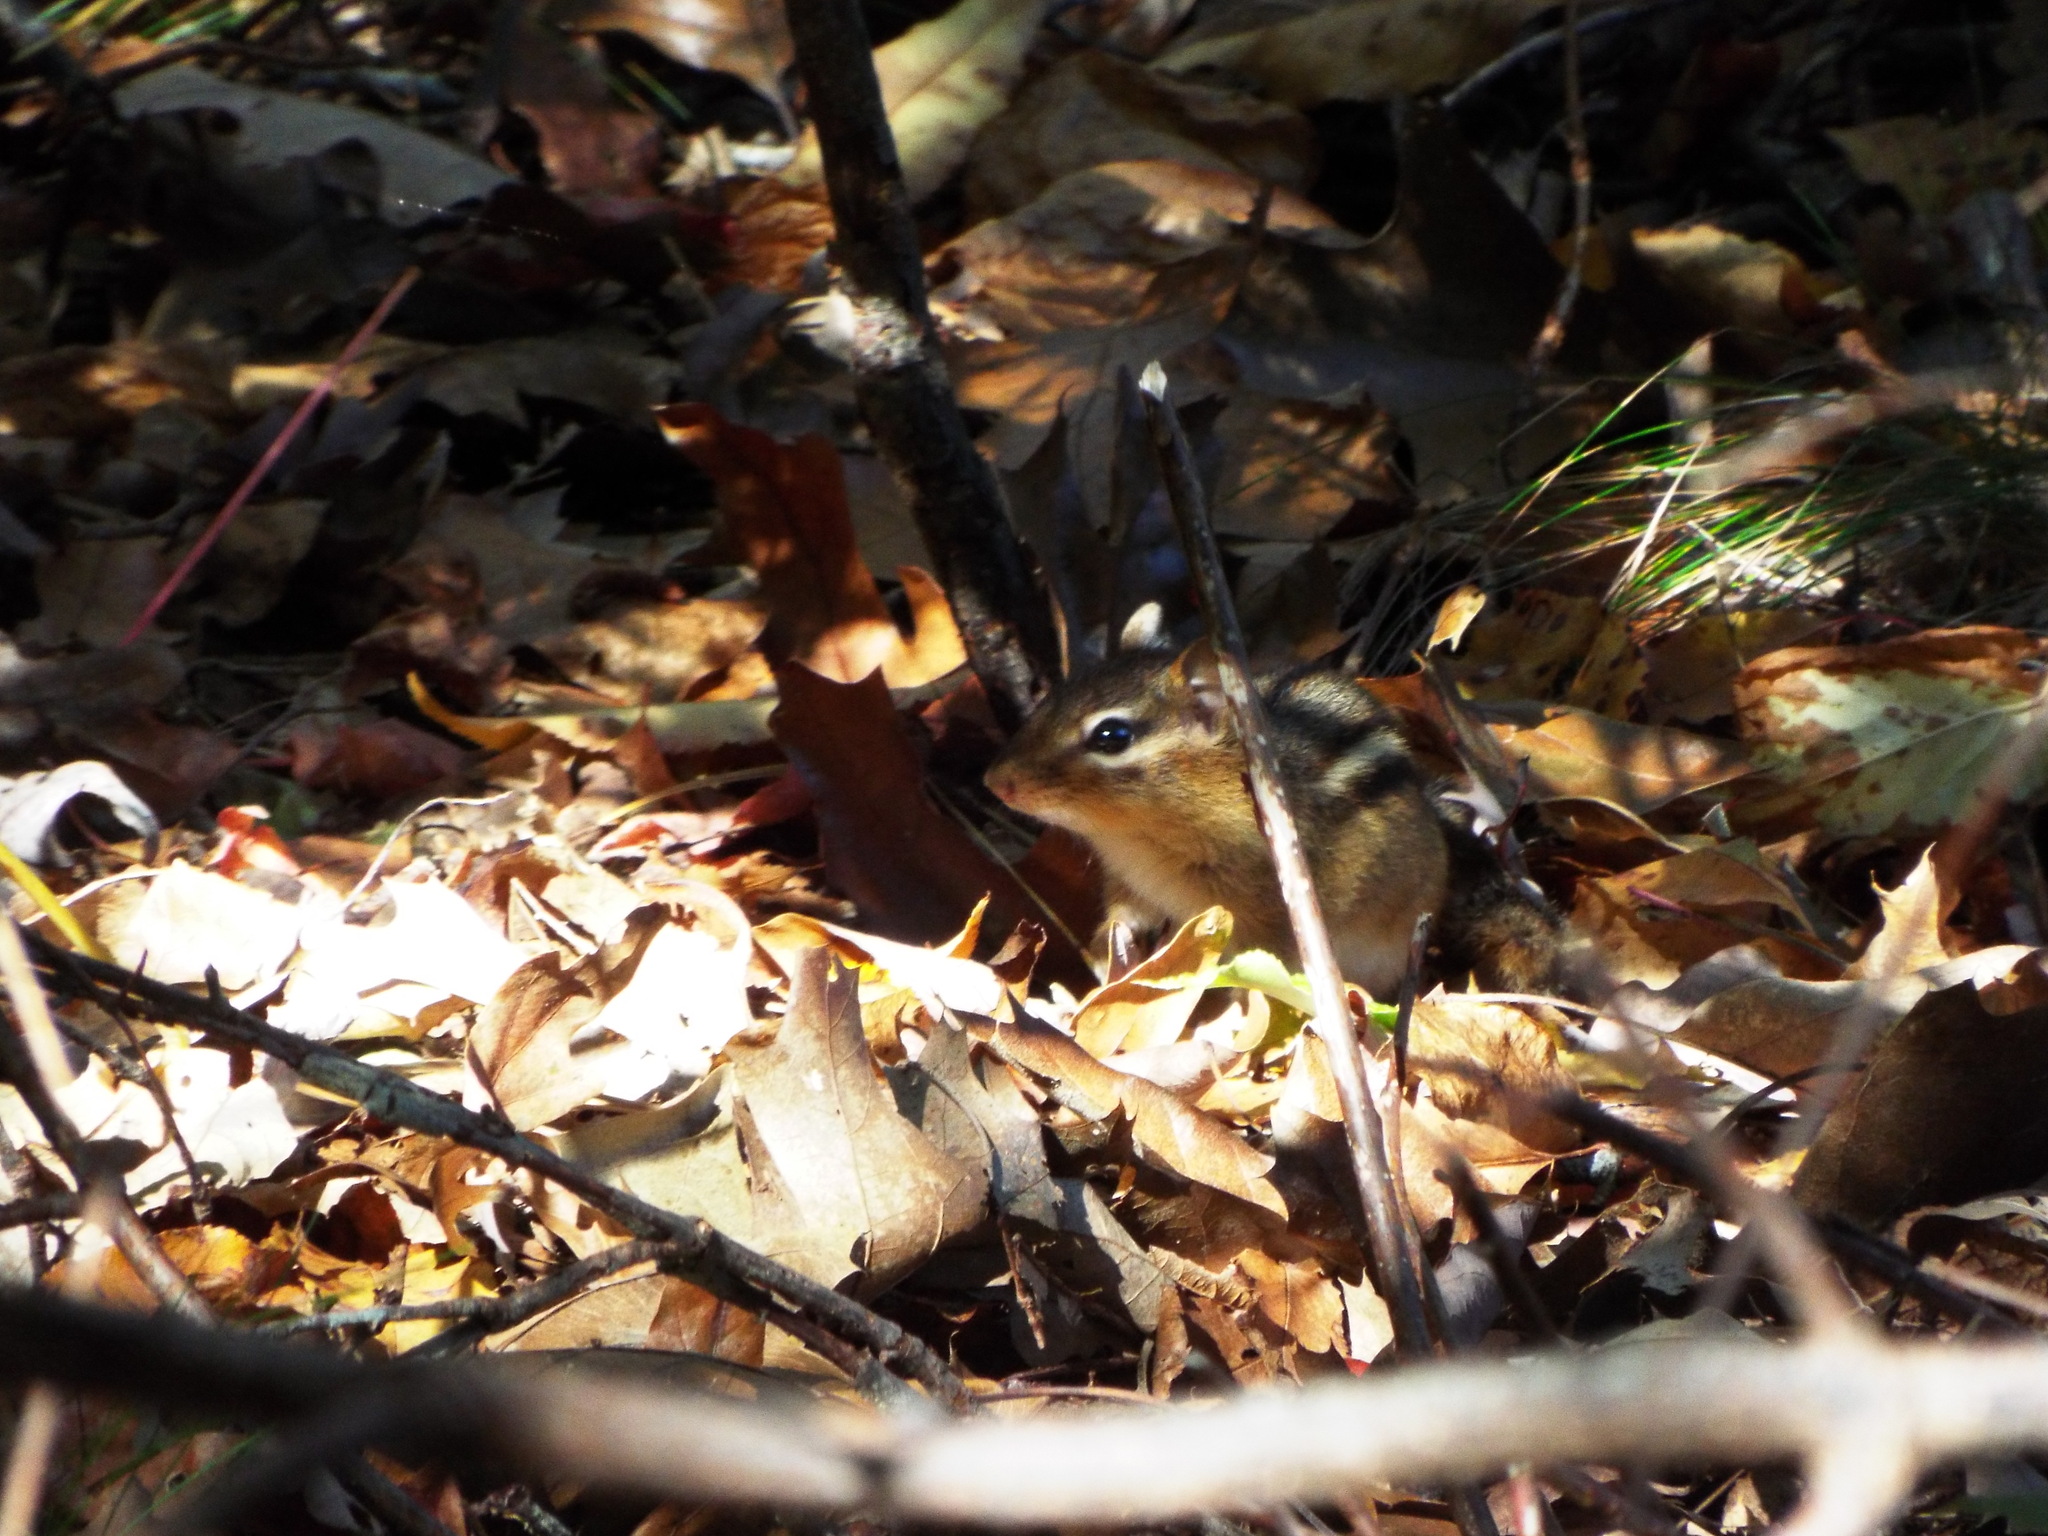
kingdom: Animalia
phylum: Chordata
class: Mammalia
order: Rodentia
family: Sciuridae
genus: Tamias
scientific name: Tamias striatus
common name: Eastern chipmunk
